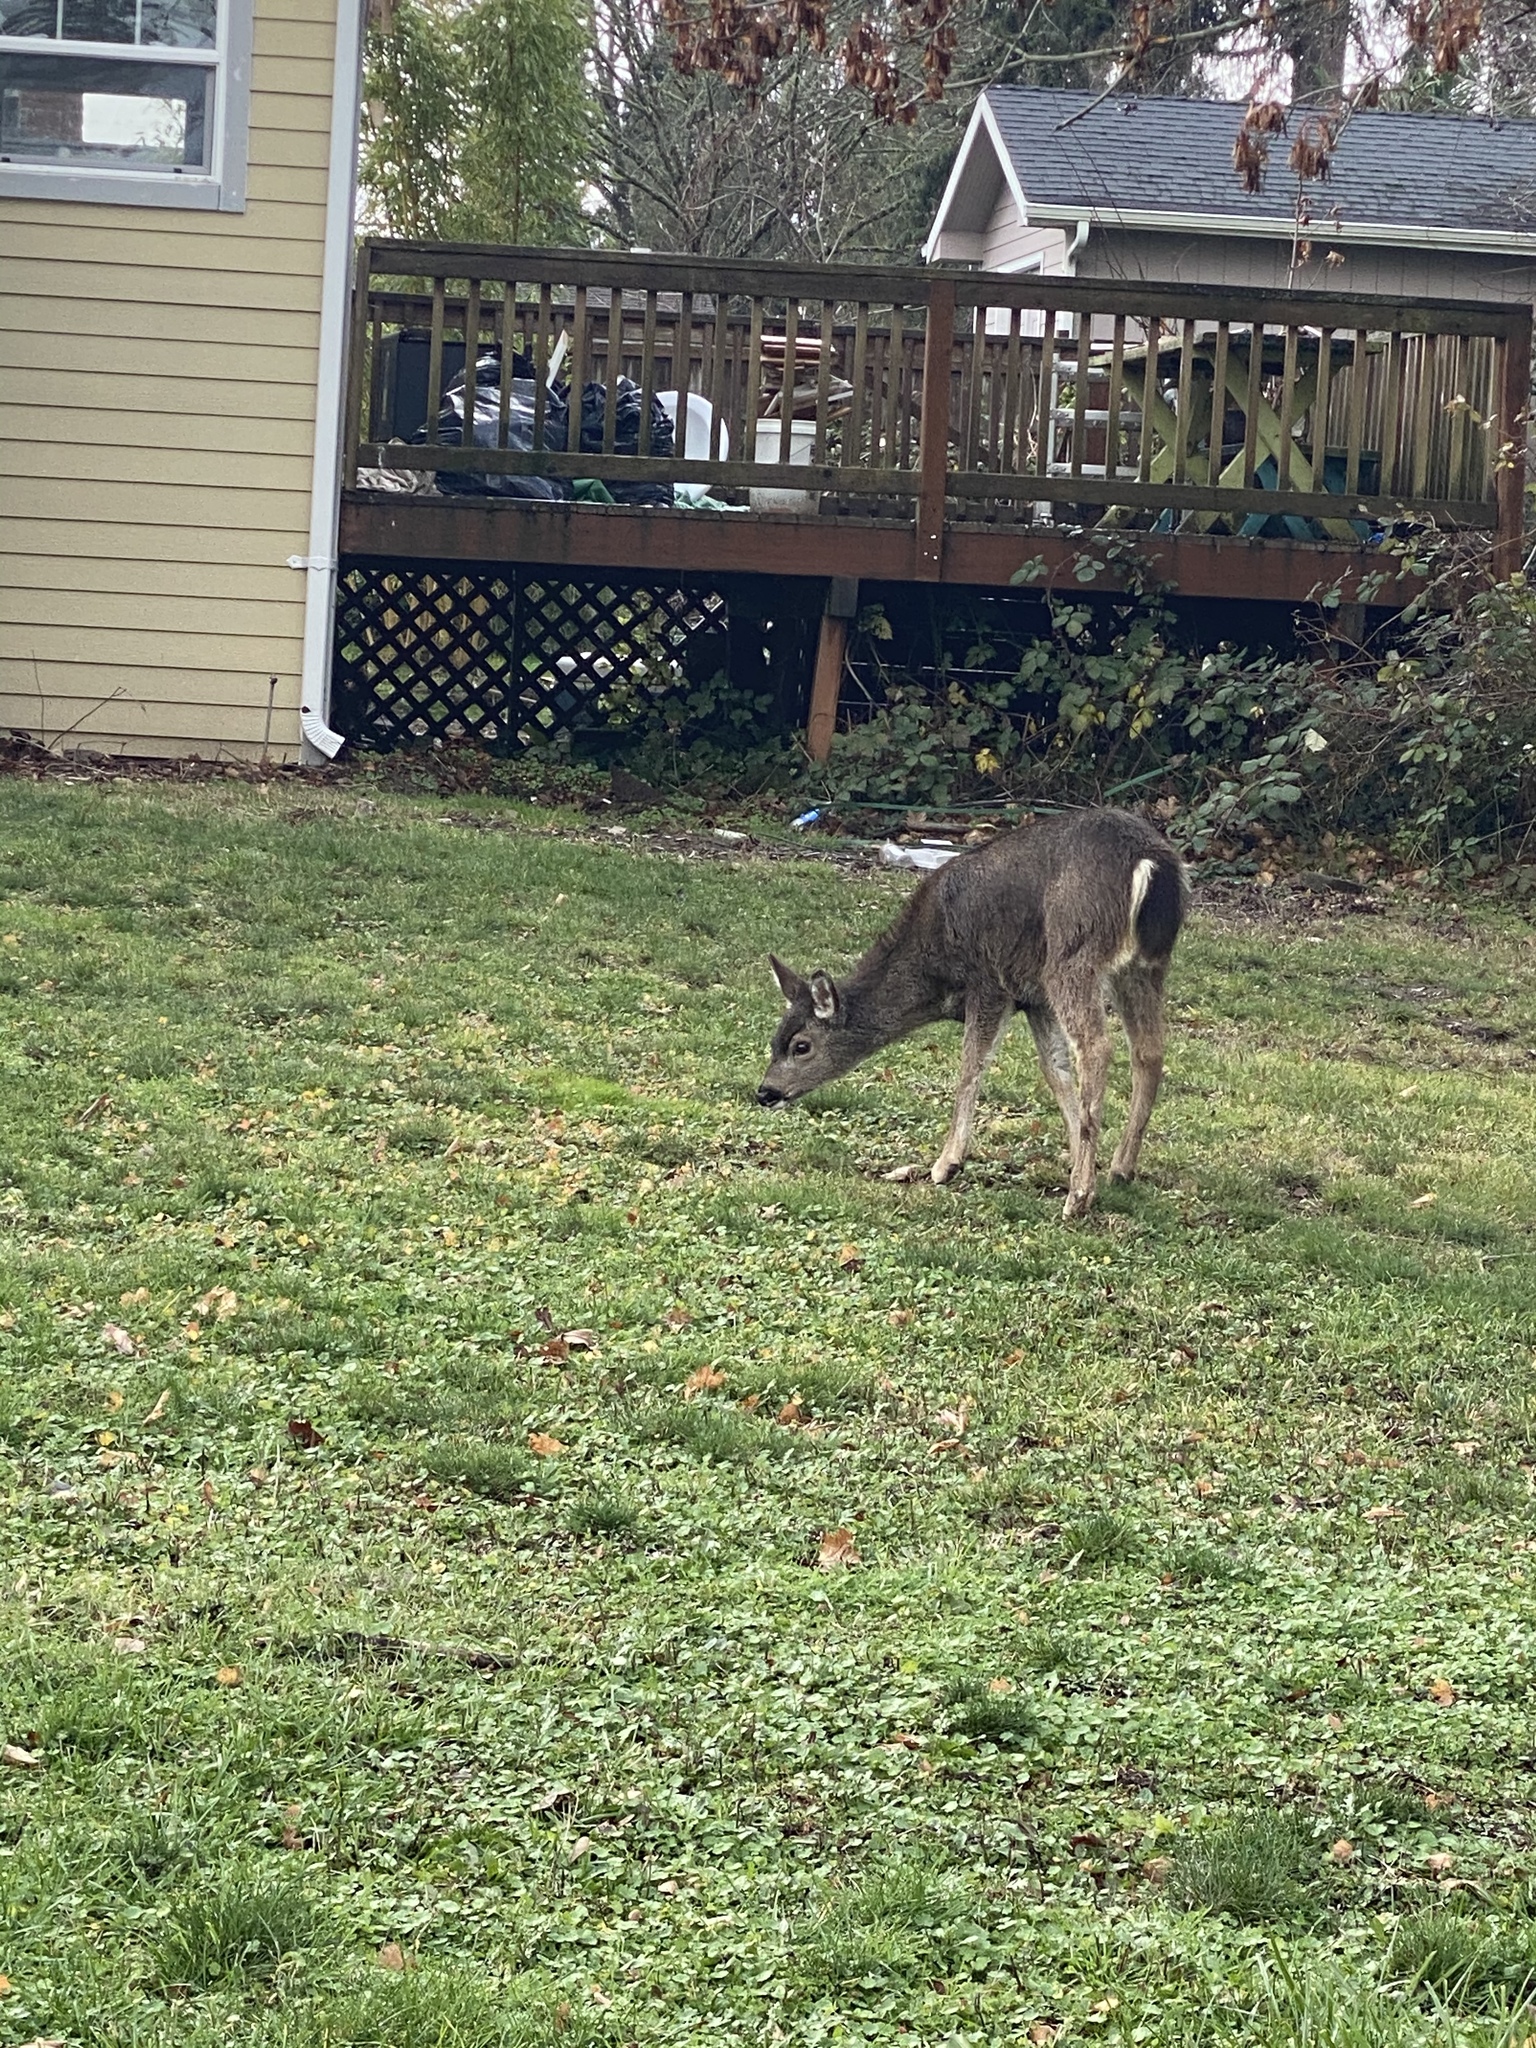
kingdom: Animalia
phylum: Chordata
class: Mammalia
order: Artiodactyla
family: Cervidae
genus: Odocoileus
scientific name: Odocoileus hemionus
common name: Mule deer
